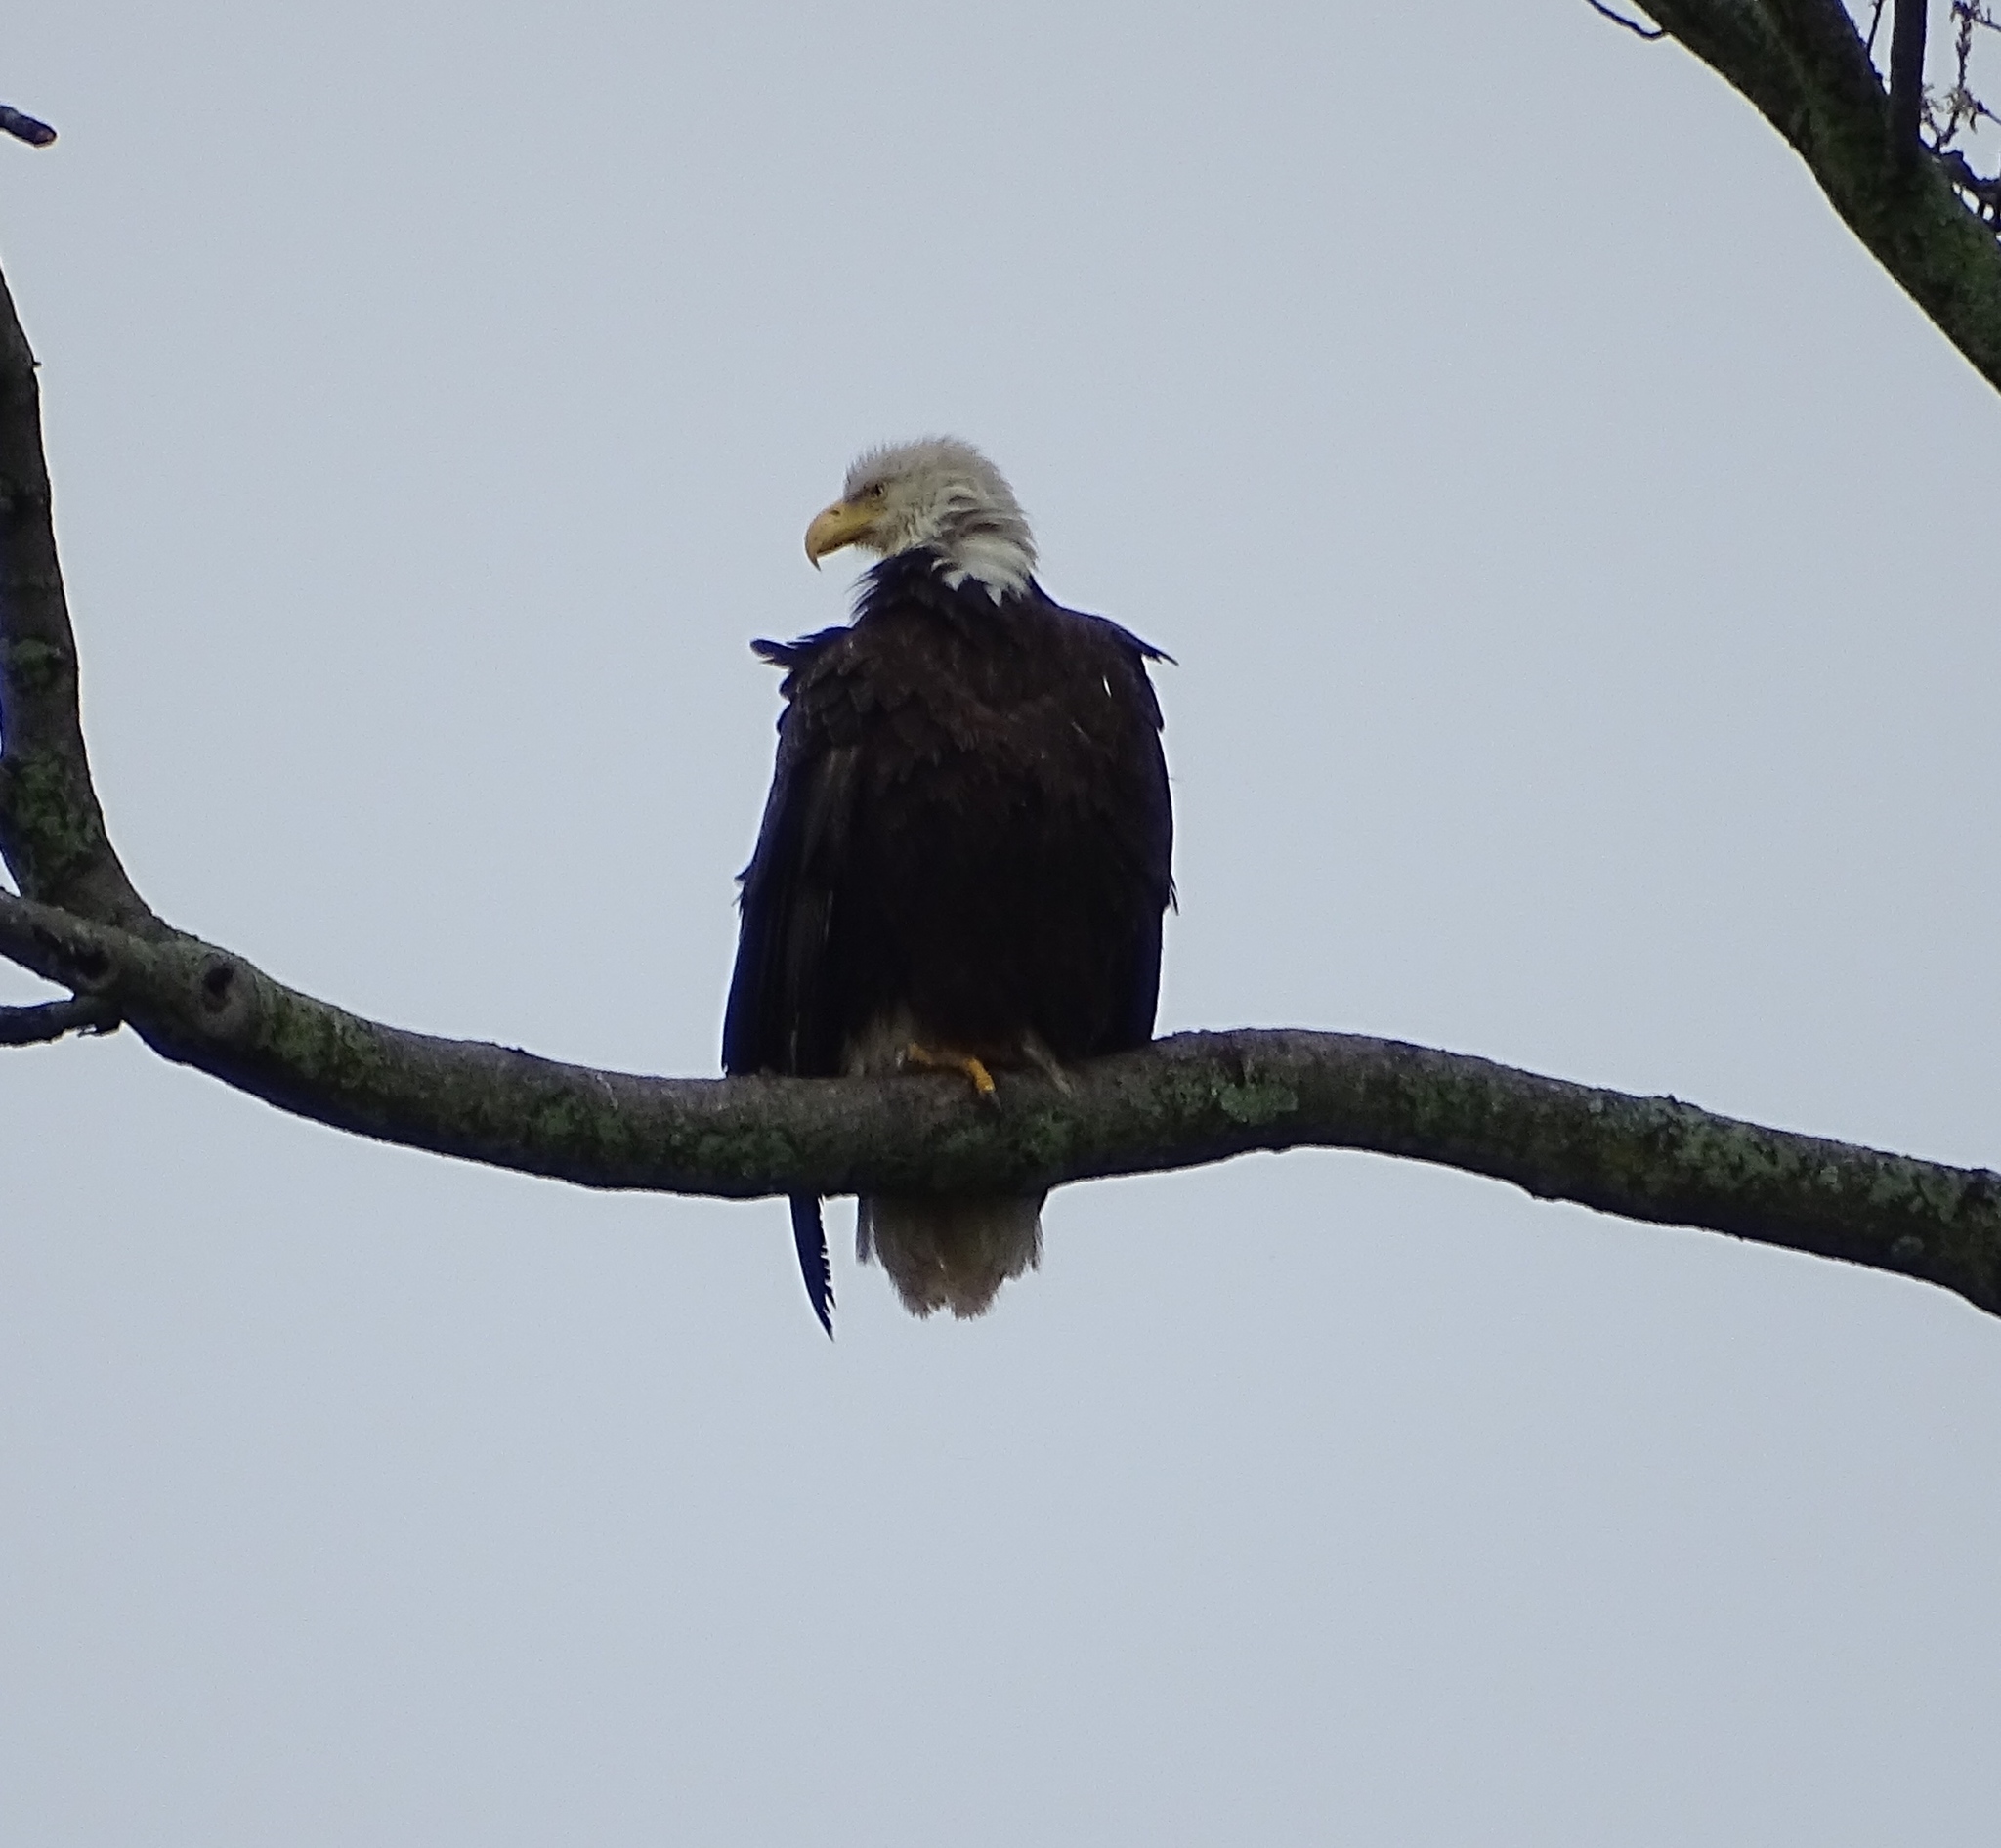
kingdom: Animalia
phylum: Chordata
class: Aves
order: Accipitriformes
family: Accipitridae
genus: Haliaeetus
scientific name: Haliaeetus leucocephalus
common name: Bald eagle
